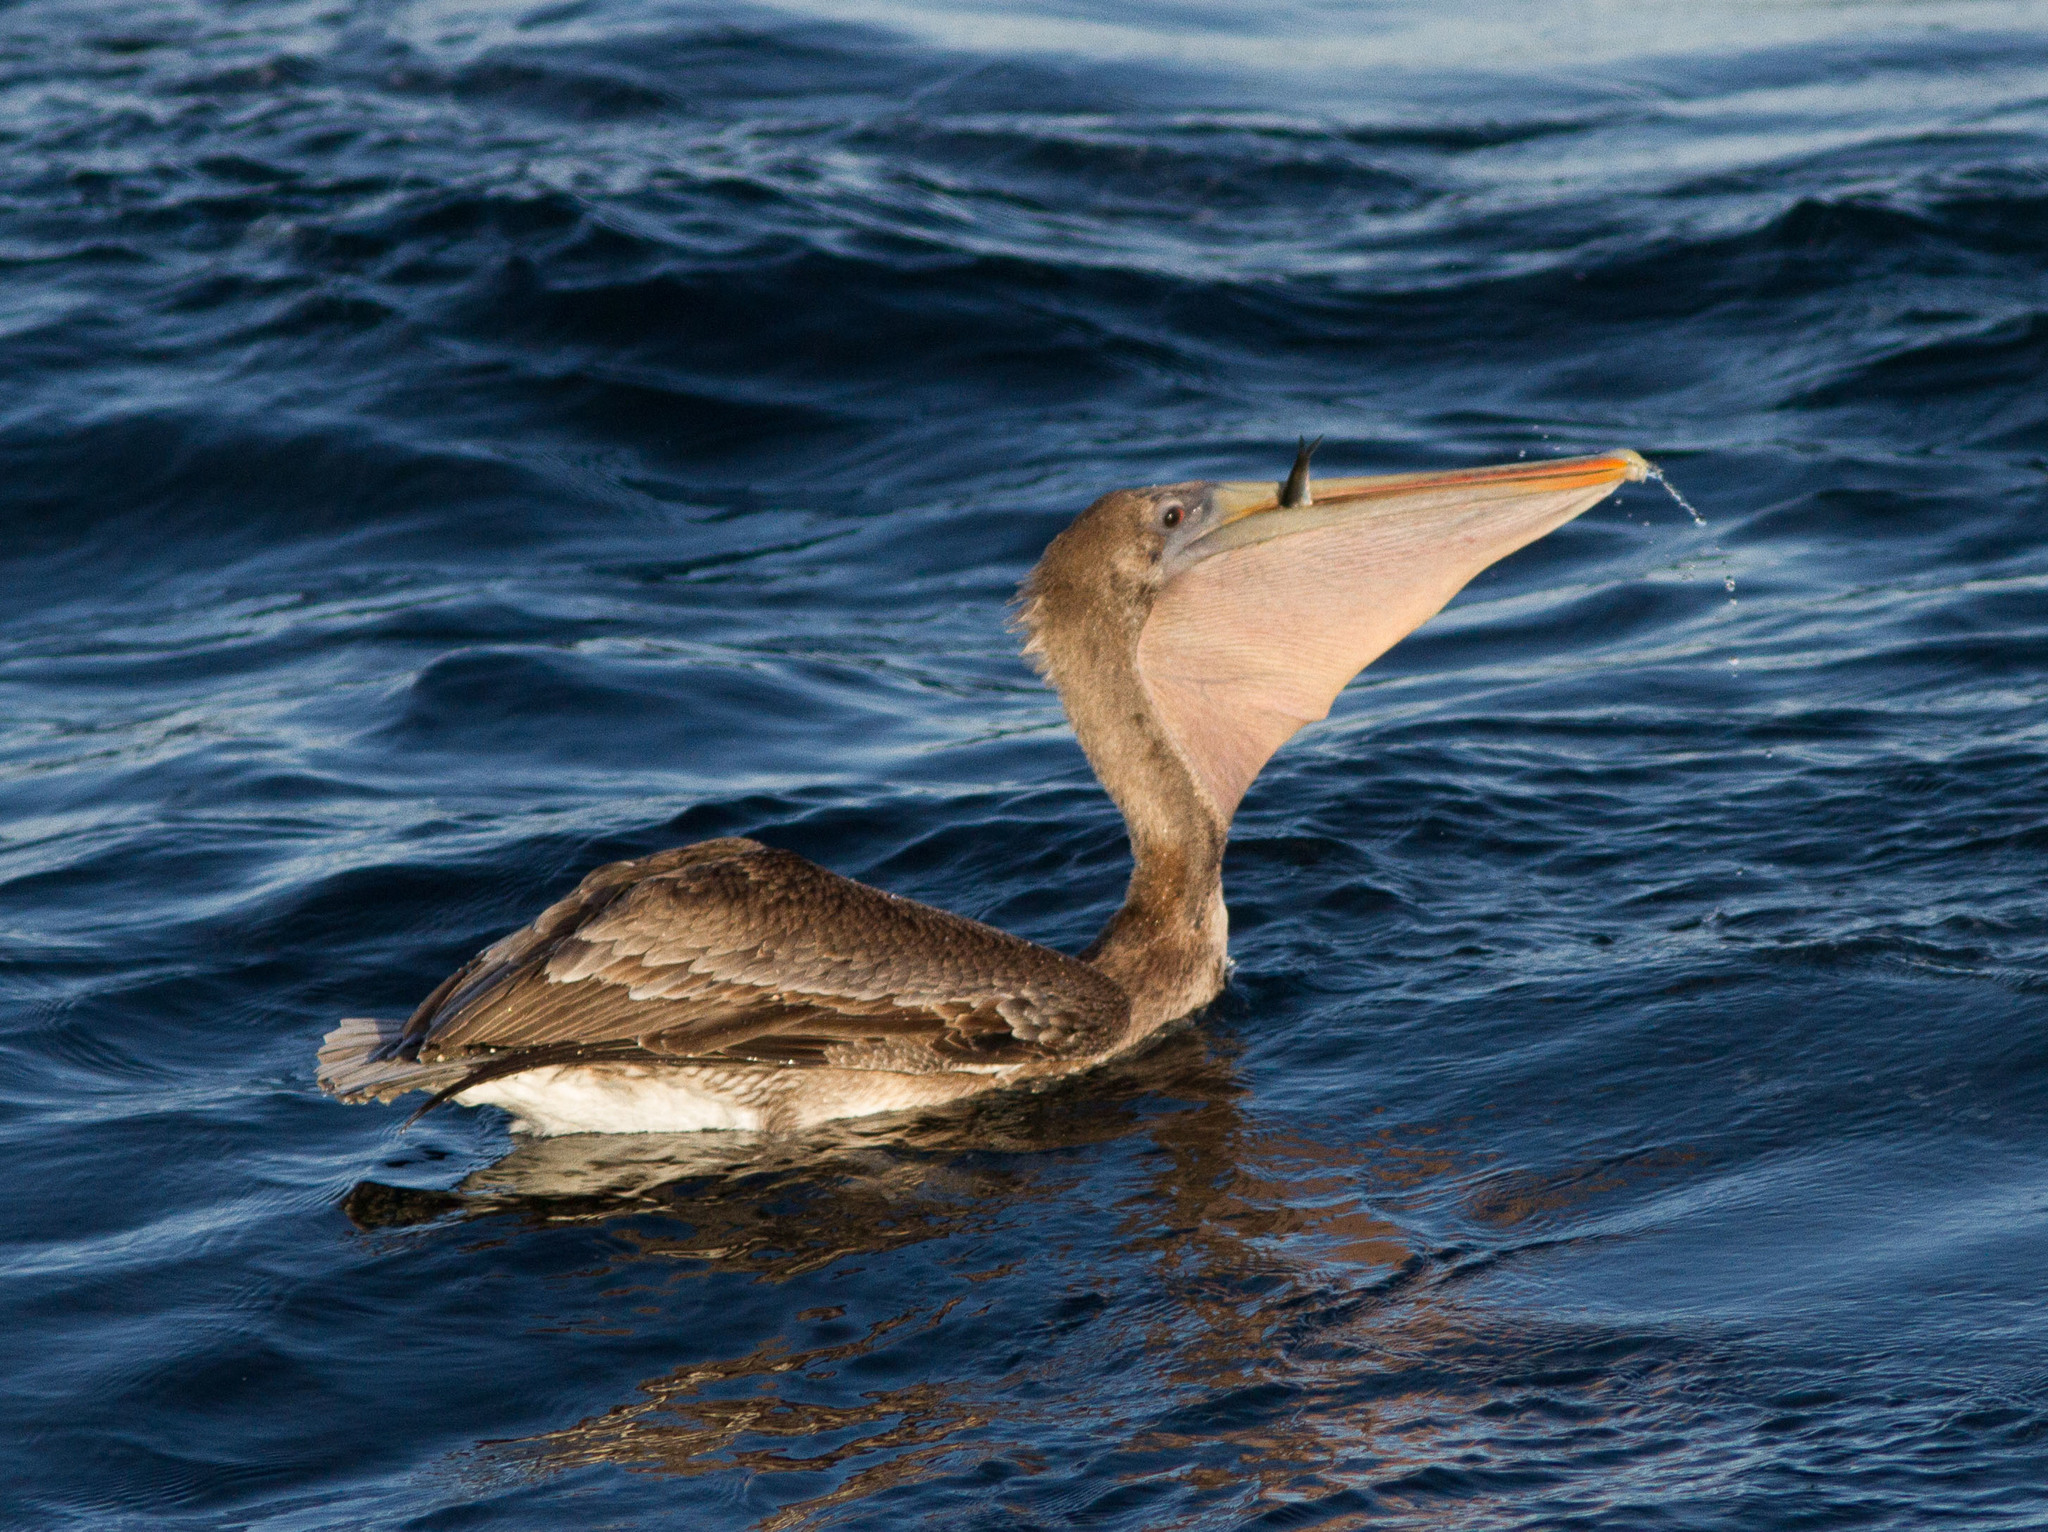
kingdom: Animalia
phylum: Chordata
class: Aves
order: Pelecaniformes
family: Pelecanidae
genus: Pelecanus
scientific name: Pelecanus occidentalis
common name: Brown pelican
